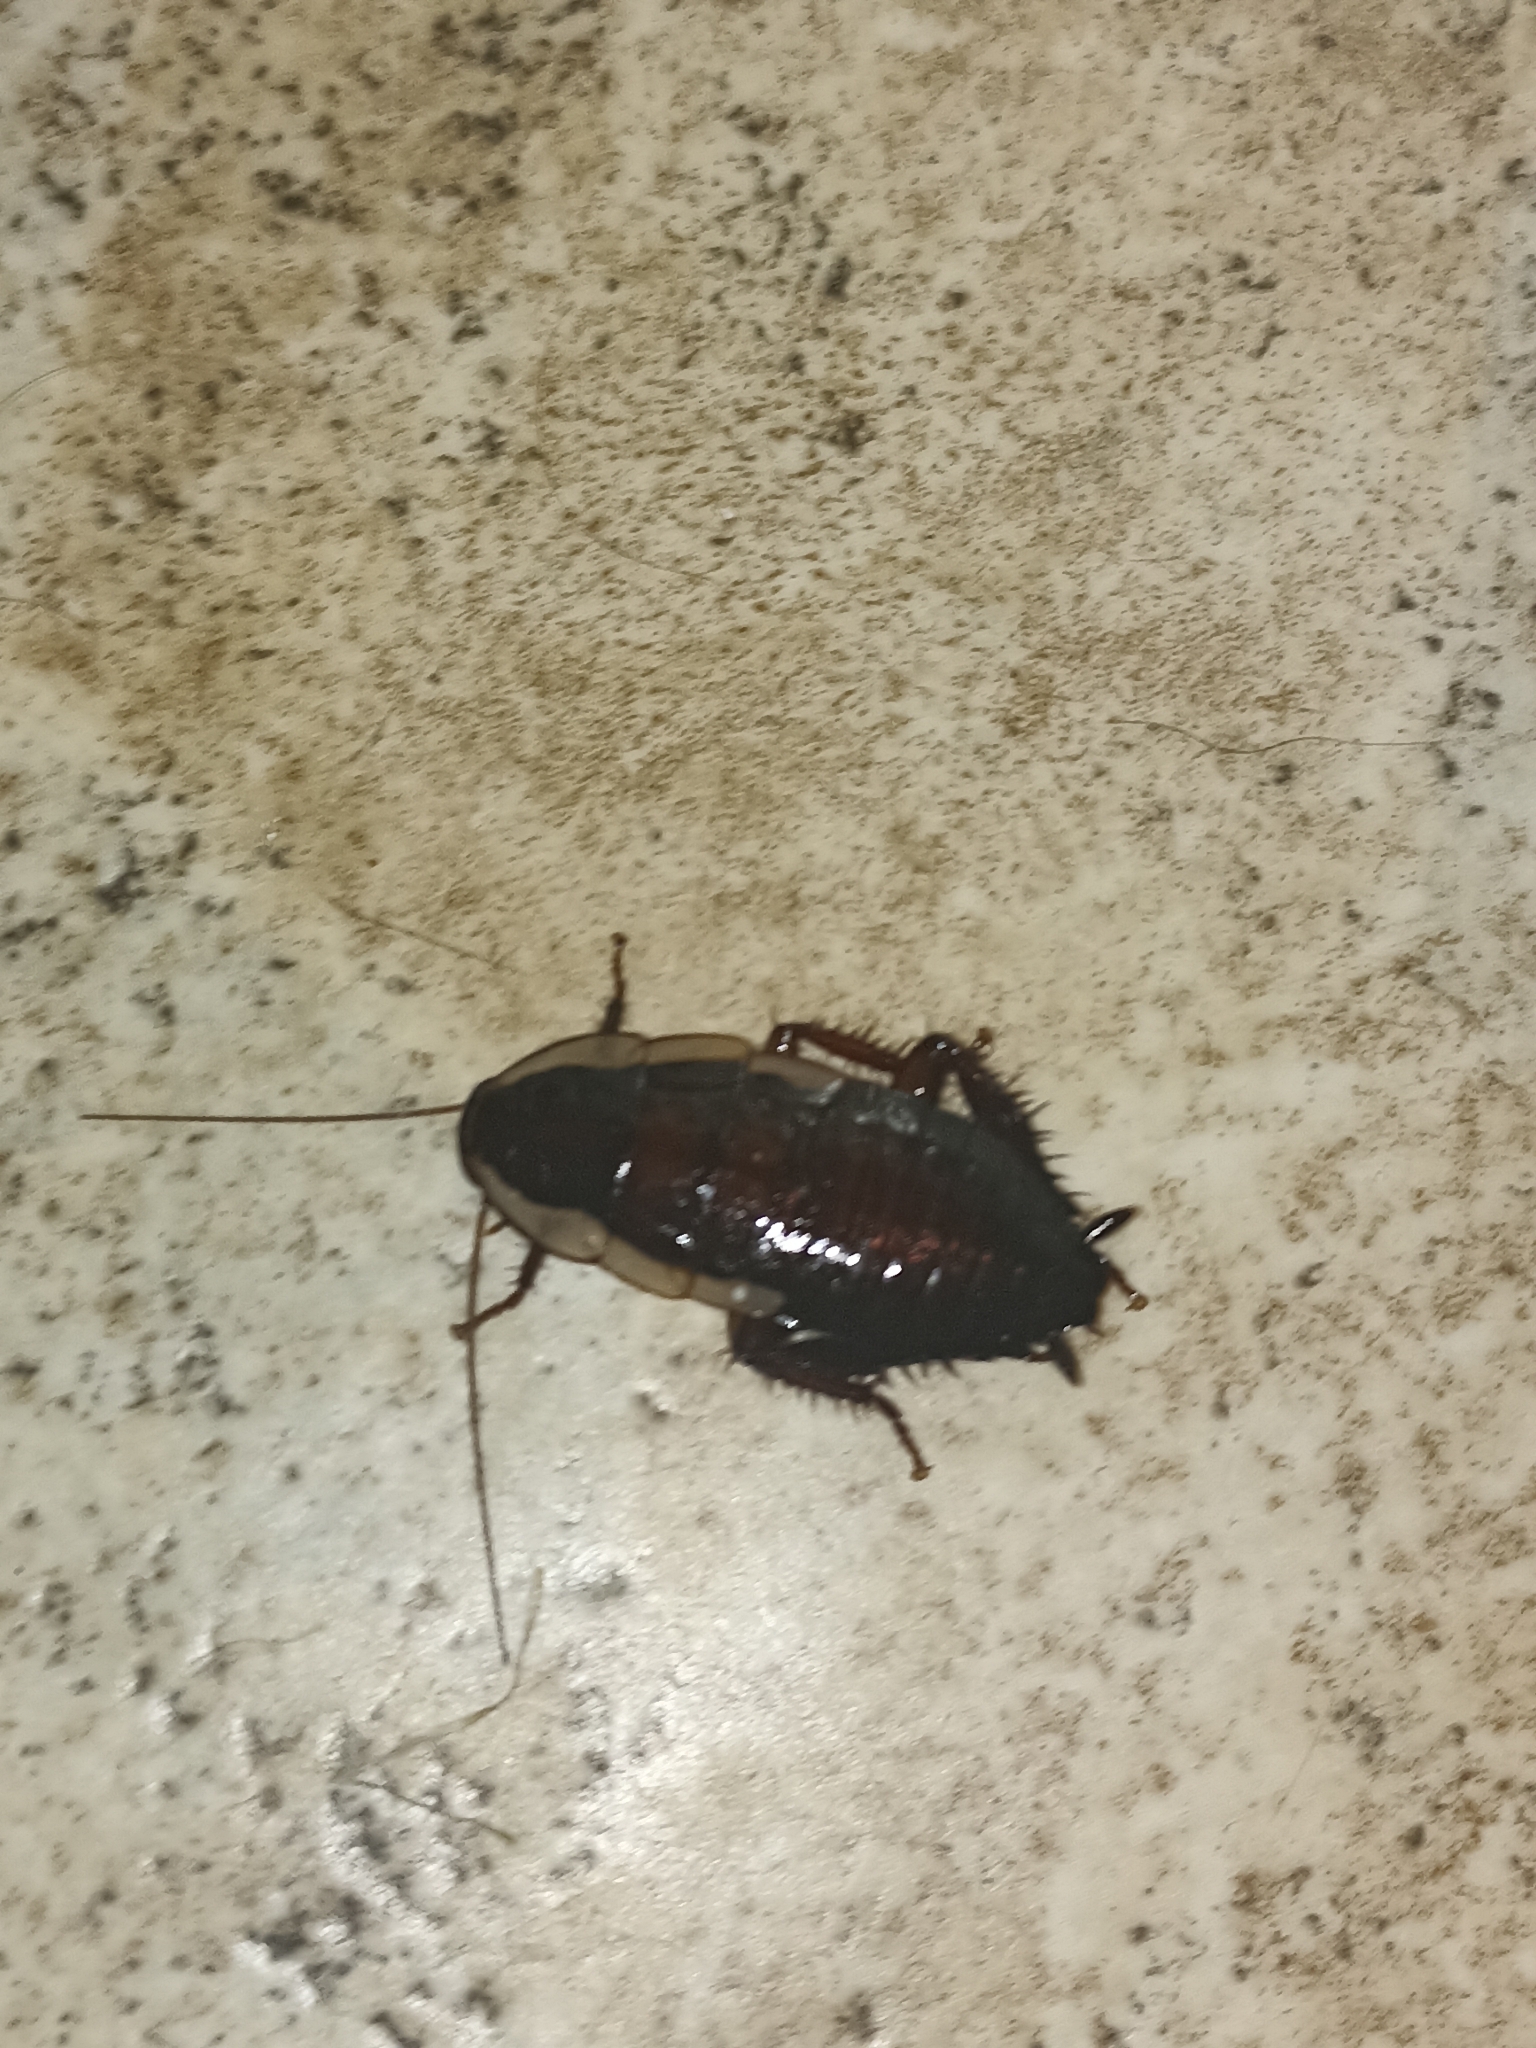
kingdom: Animalia
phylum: Arthropoda
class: Insecta
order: Blattodea
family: Blattidae
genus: Drymaplaneta
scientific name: Drymaplaneta semivitta
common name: Gisborne cockroach
